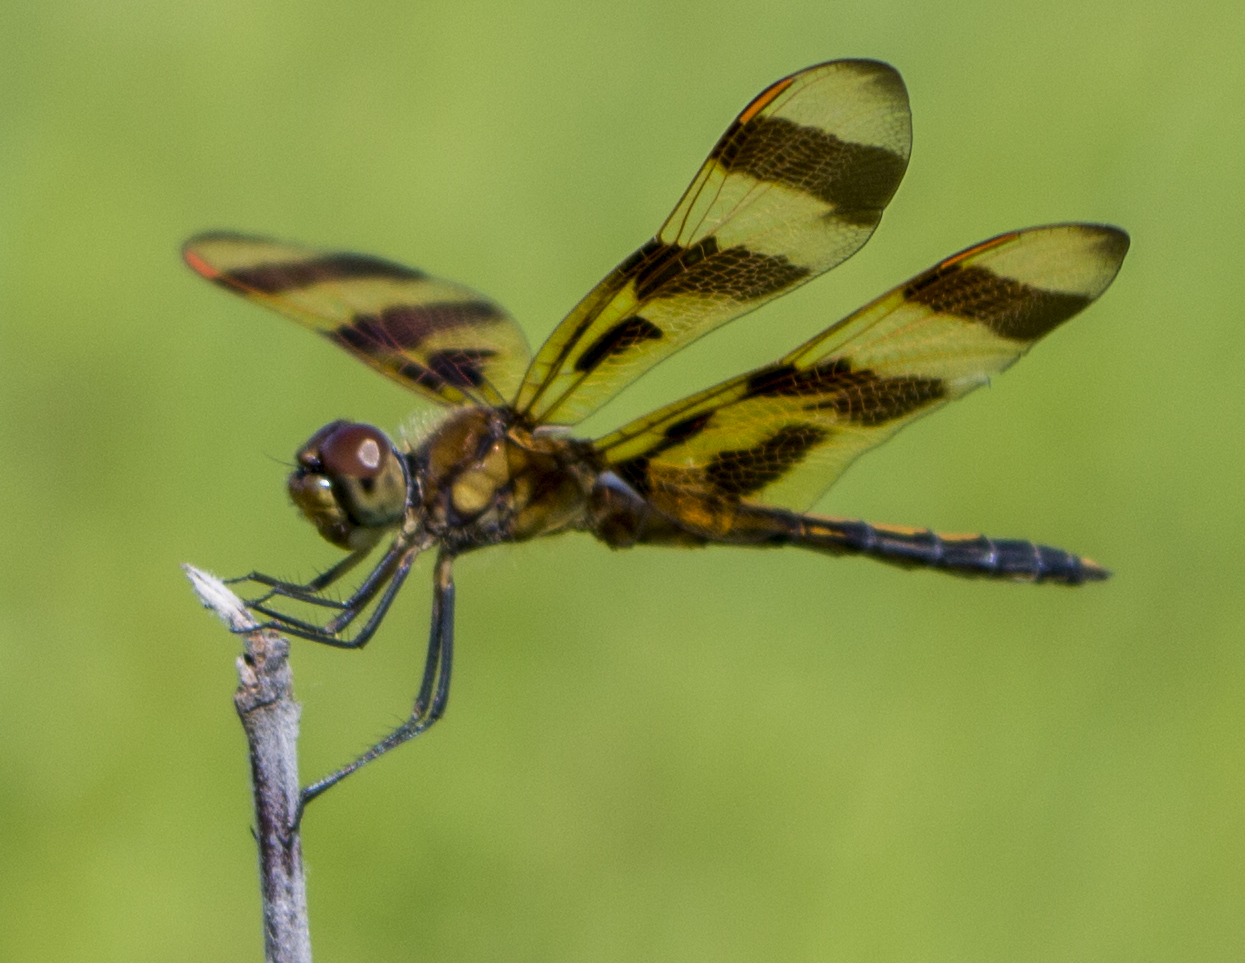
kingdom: Animalia
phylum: Arthropoda
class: Insecta
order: Odonata
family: Libellulidae
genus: Celithemis
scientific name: Celithemis eponina
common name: Halloween pennant
